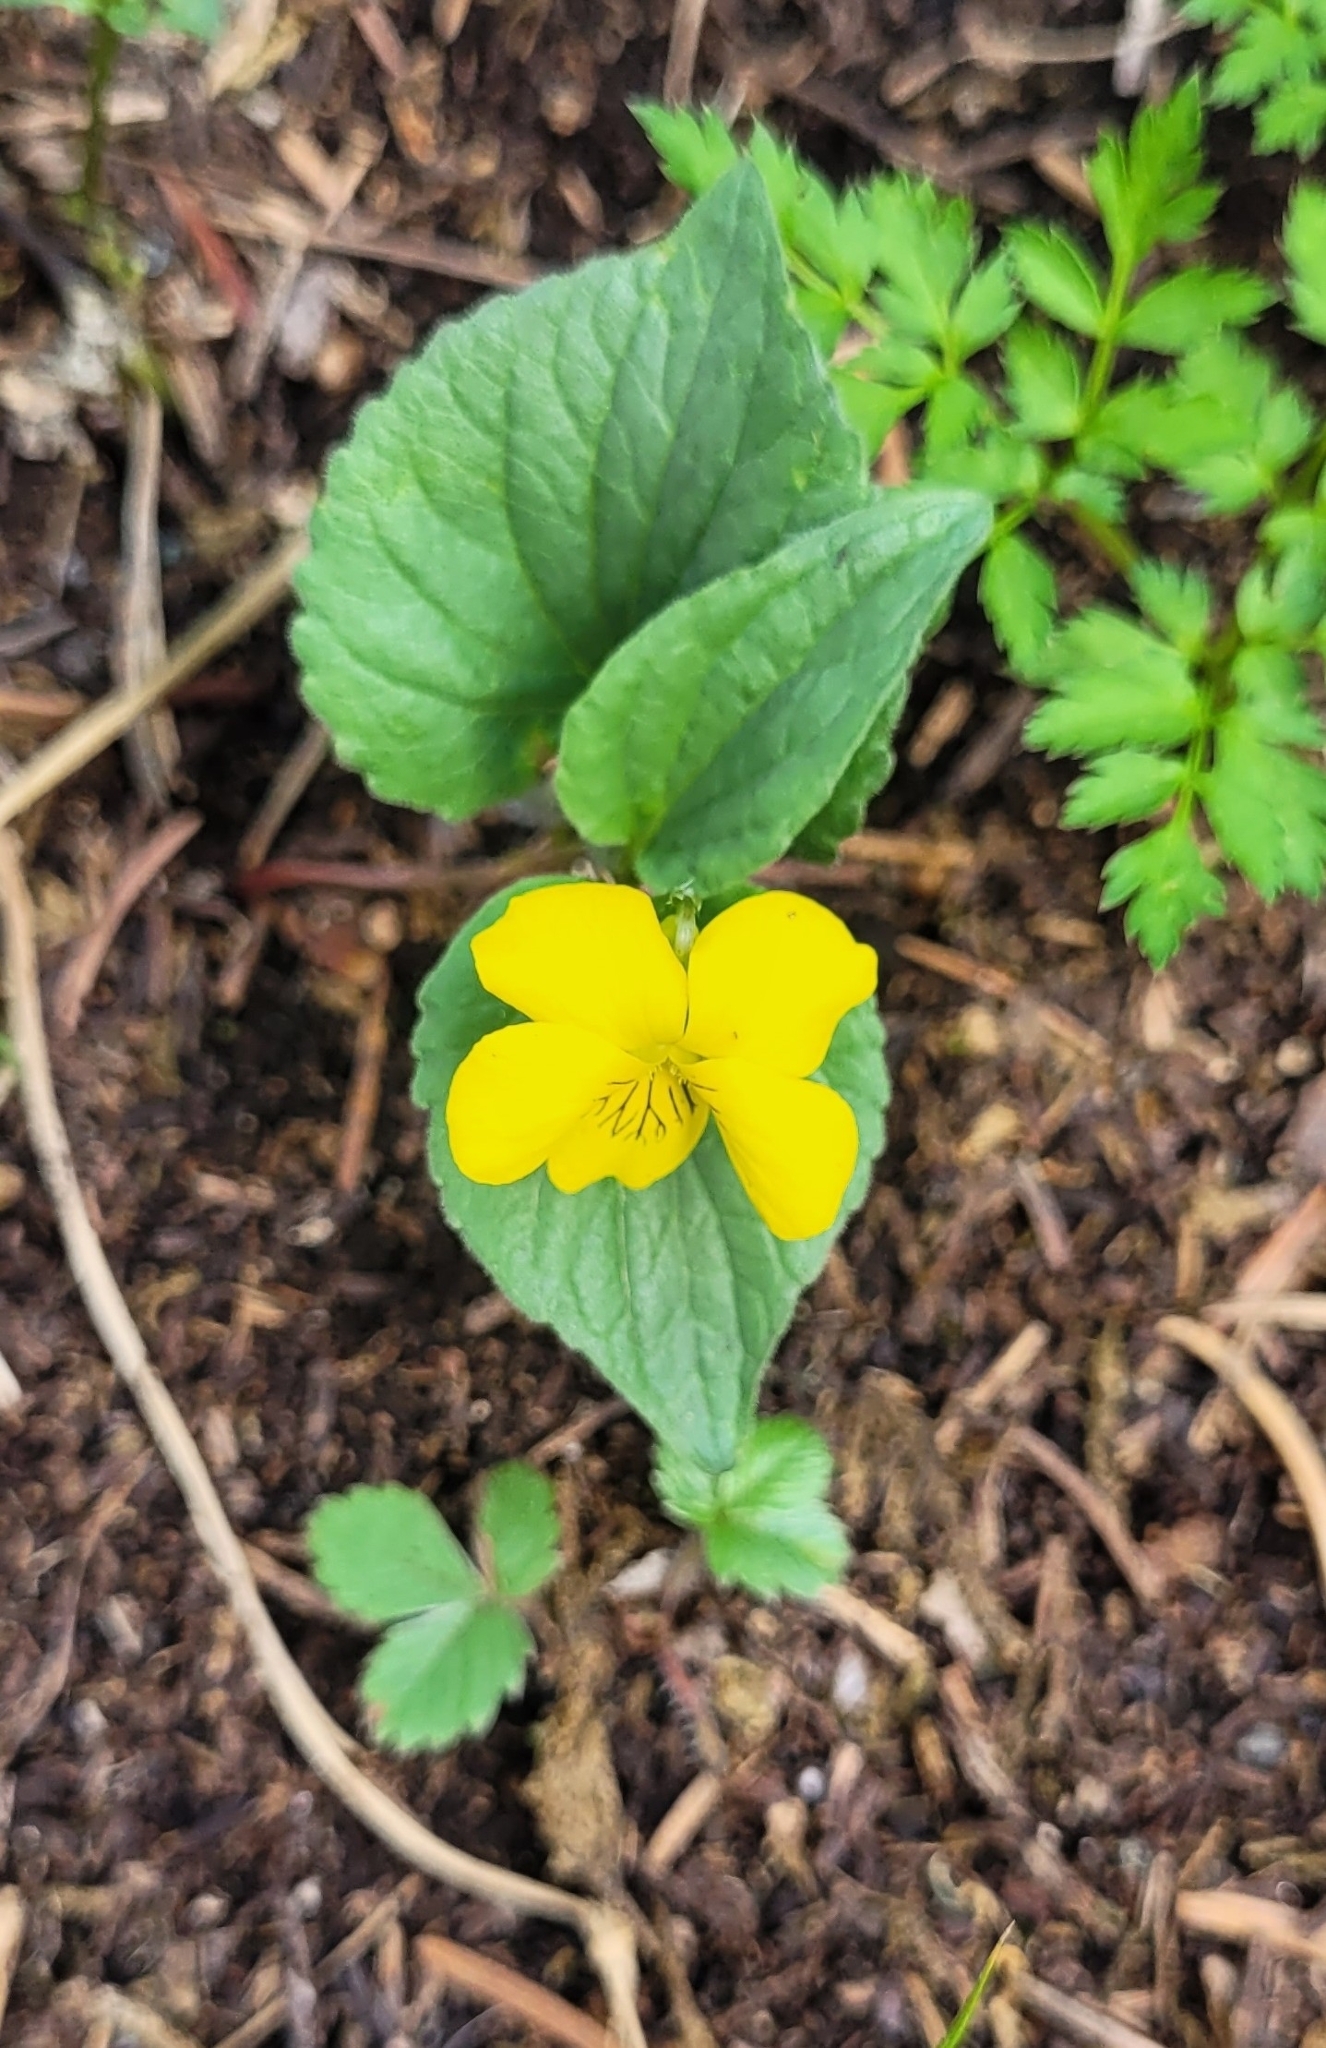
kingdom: Plantae
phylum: Tracheophyta
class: Magnoliopsida
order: Malpighiales
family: Violaceae
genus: Viola
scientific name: Viola acutifolia
